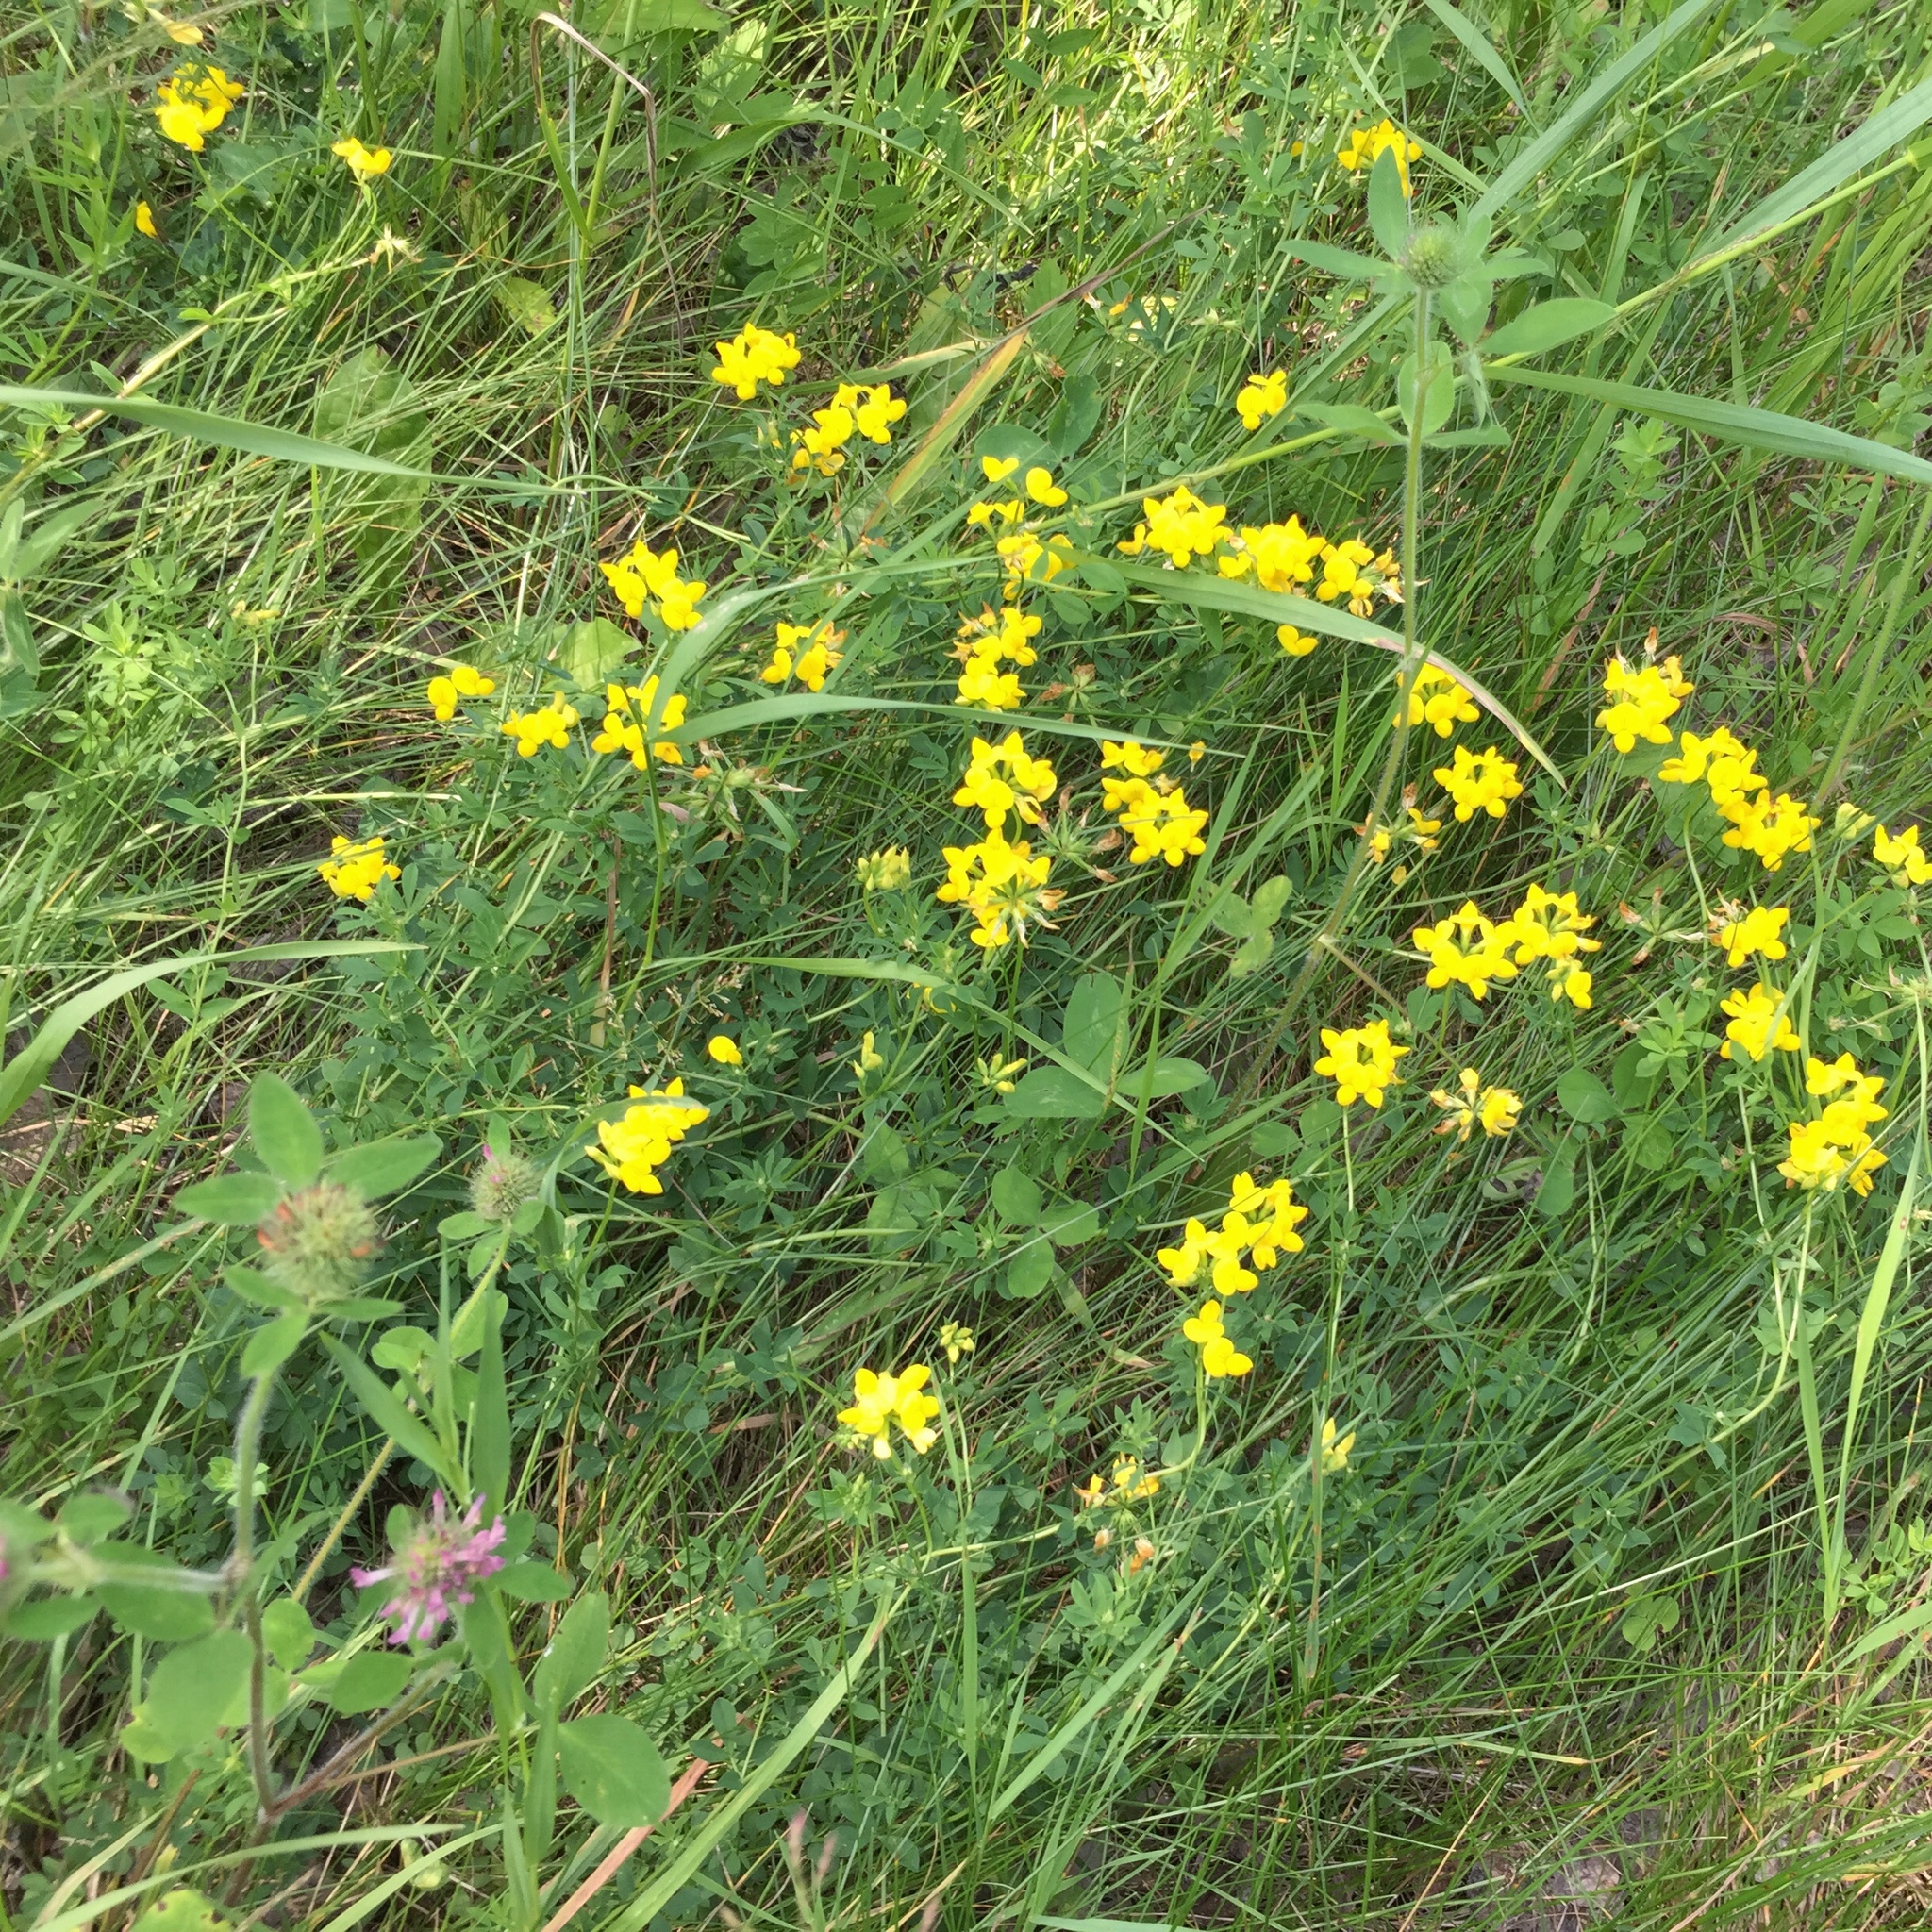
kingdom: Plantae
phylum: Tracheophyta
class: Magnoliopsida
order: Fabales
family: Fabaceae
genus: Lotus
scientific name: Lotus corniculatus
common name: Common bird's-foot-trefoil
